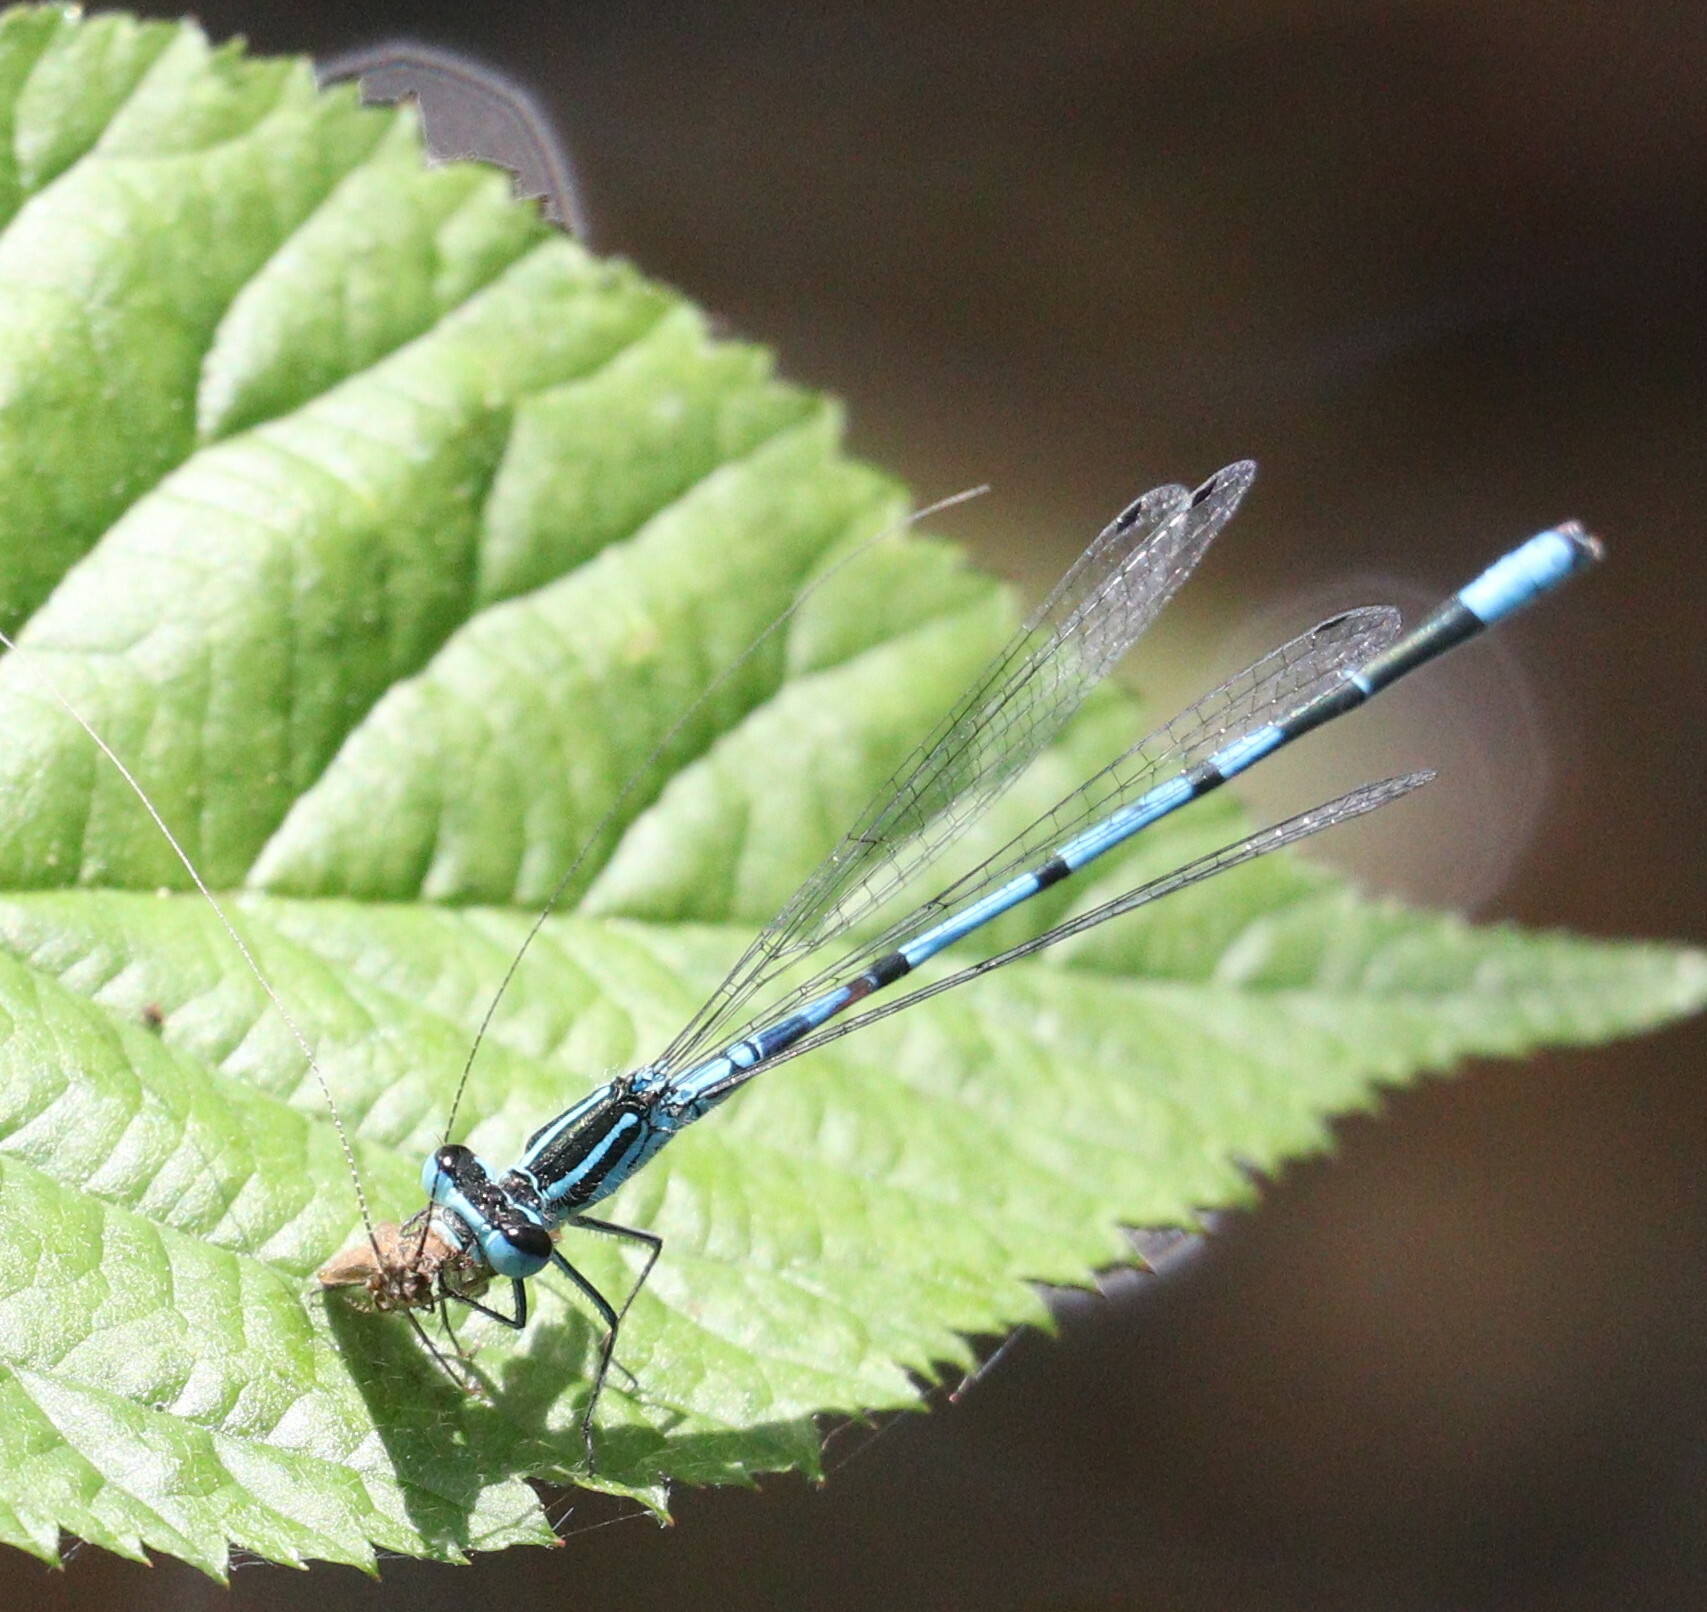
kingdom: Animalia
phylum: Arthropoda
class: Insecta
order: Odonata
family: Coenagrionidae
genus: Coenagrion
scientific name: Coenagrion puella
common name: Azure damselfly
